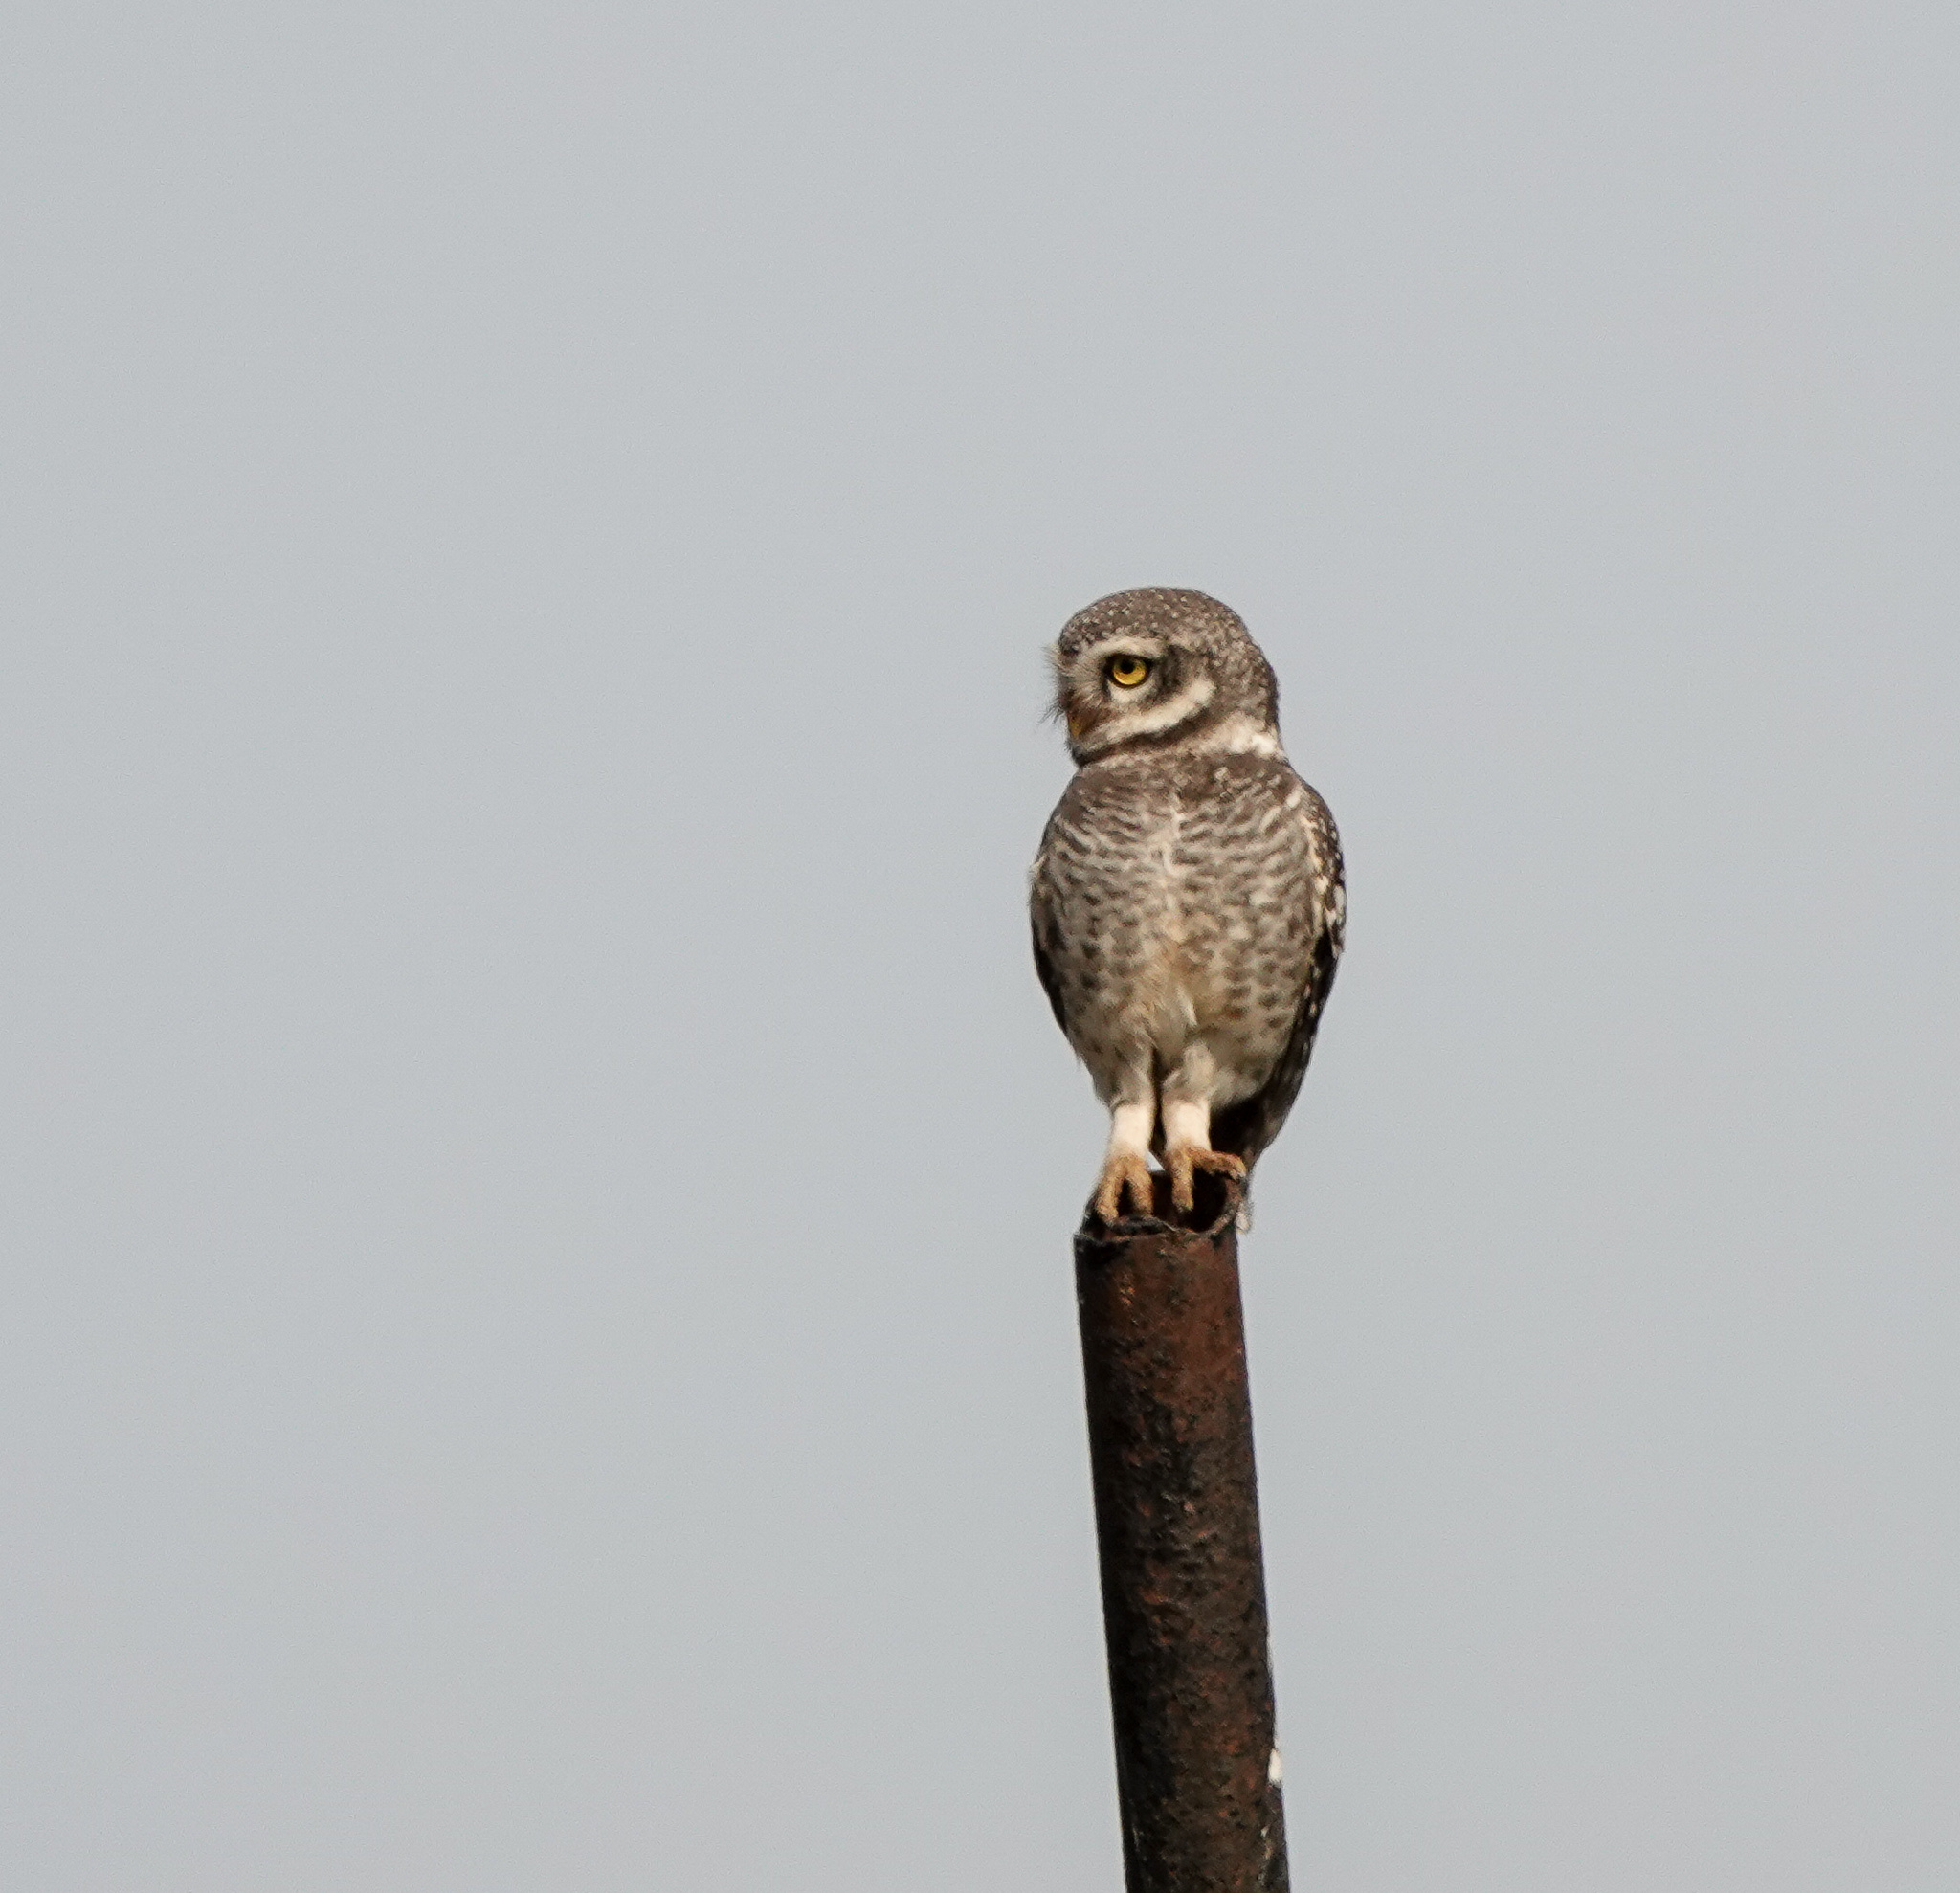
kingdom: Animalia
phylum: Chordata
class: Aves
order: Strigiformes
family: Strigidae
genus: Athene
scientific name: Athene brama
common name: Spotted owlet
